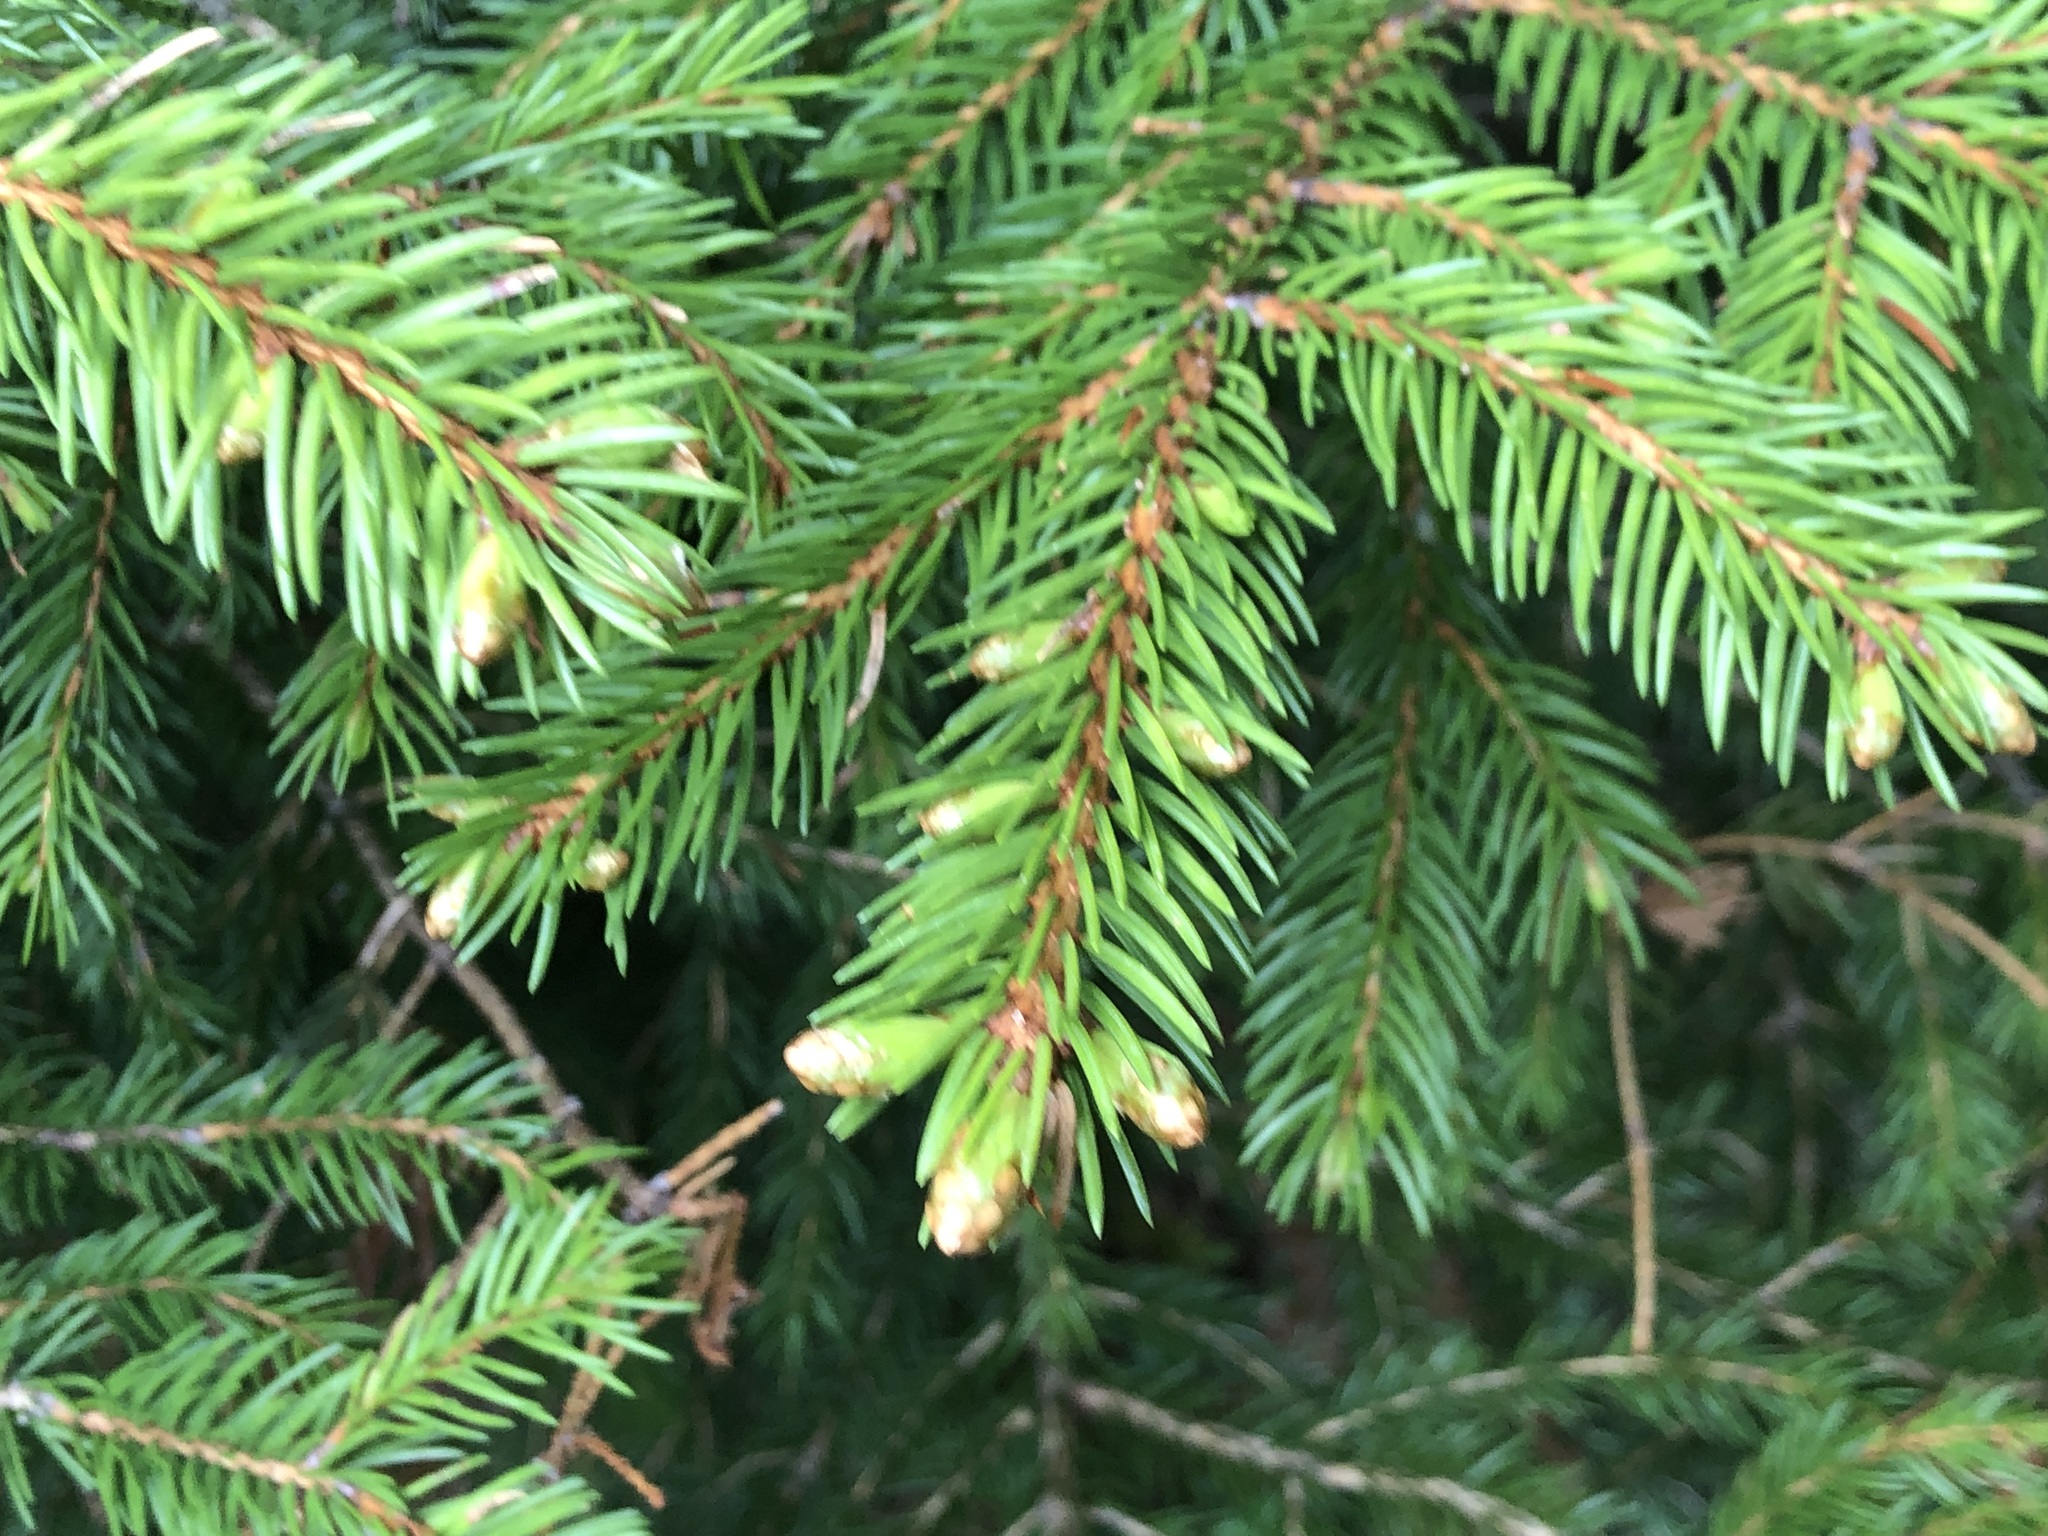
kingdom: Plantae
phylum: Tracheophyta
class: Pinopsida
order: Pinales
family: Pinaceae
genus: Picea
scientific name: Picea abies
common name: Norway spruce
